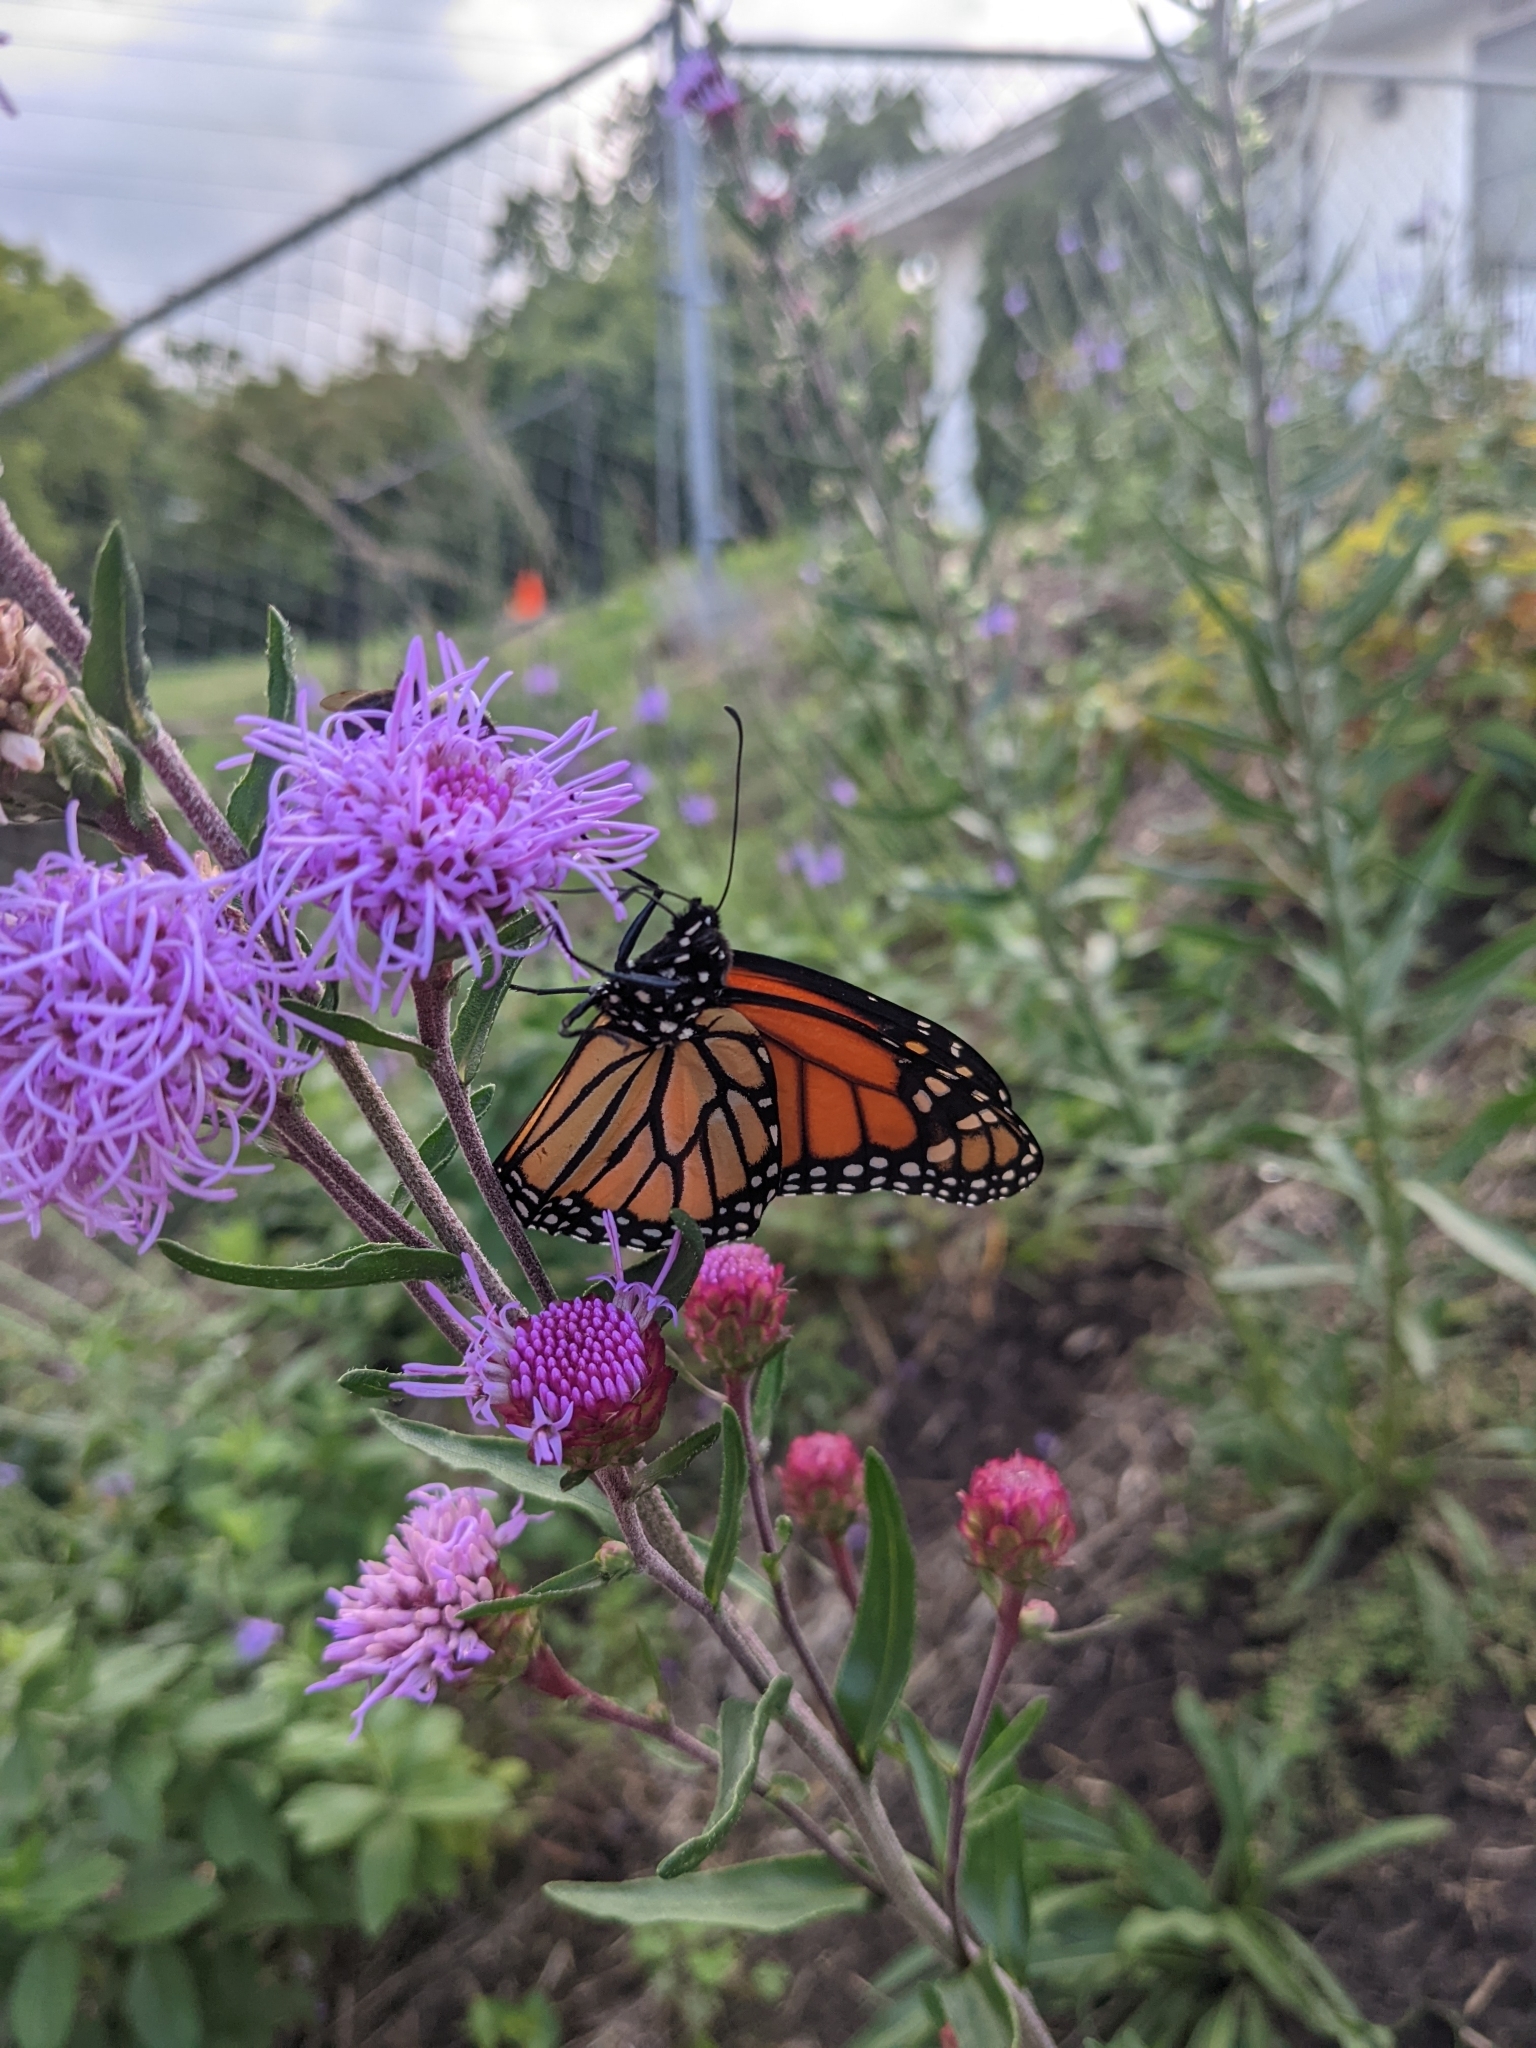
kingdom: Animalia
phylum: Arthropoda
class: Insecta
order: Lepidoptera
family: Nymphalidae
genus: Danaus
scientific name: Danaus plexippus
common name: Monarch
